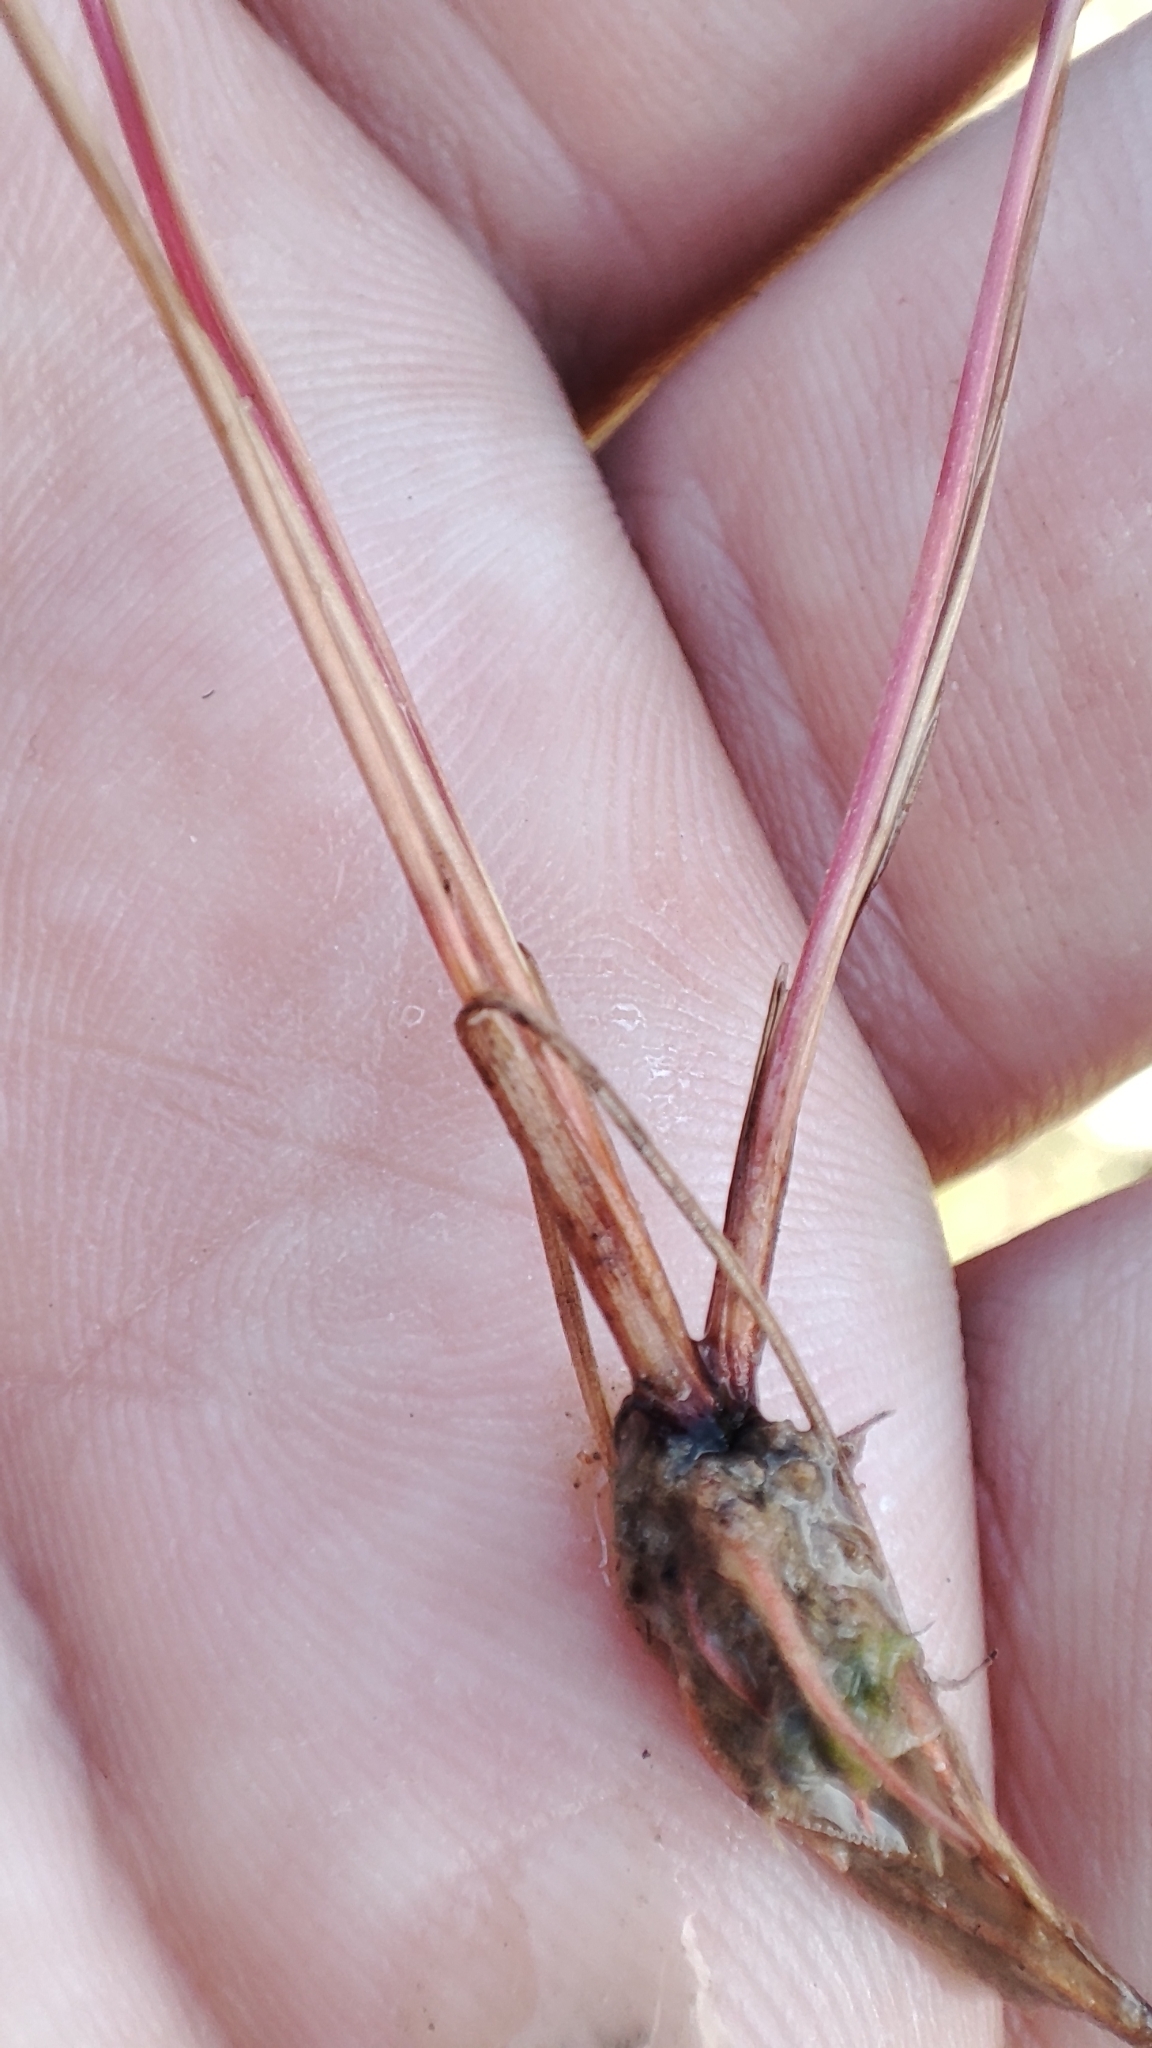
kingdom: Plantae
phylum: Tracheophyta
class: Liliopsida
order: Poales
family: Juncaceae
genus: Juncus
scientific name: Juncus bufonius
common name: Toad rush
